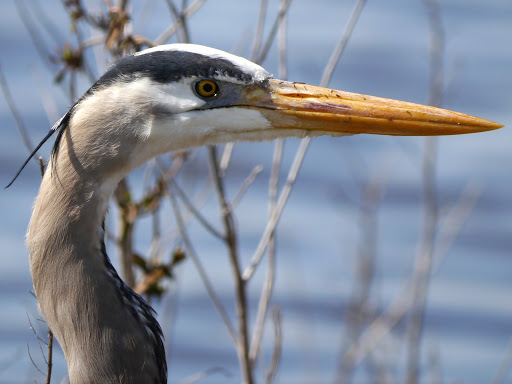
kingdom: Animalia
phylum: Chordata
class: Aves
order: Pelecaniformes
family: Ardeidae
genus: Ardea
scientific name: Ardea herodias
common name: Great blue heron
